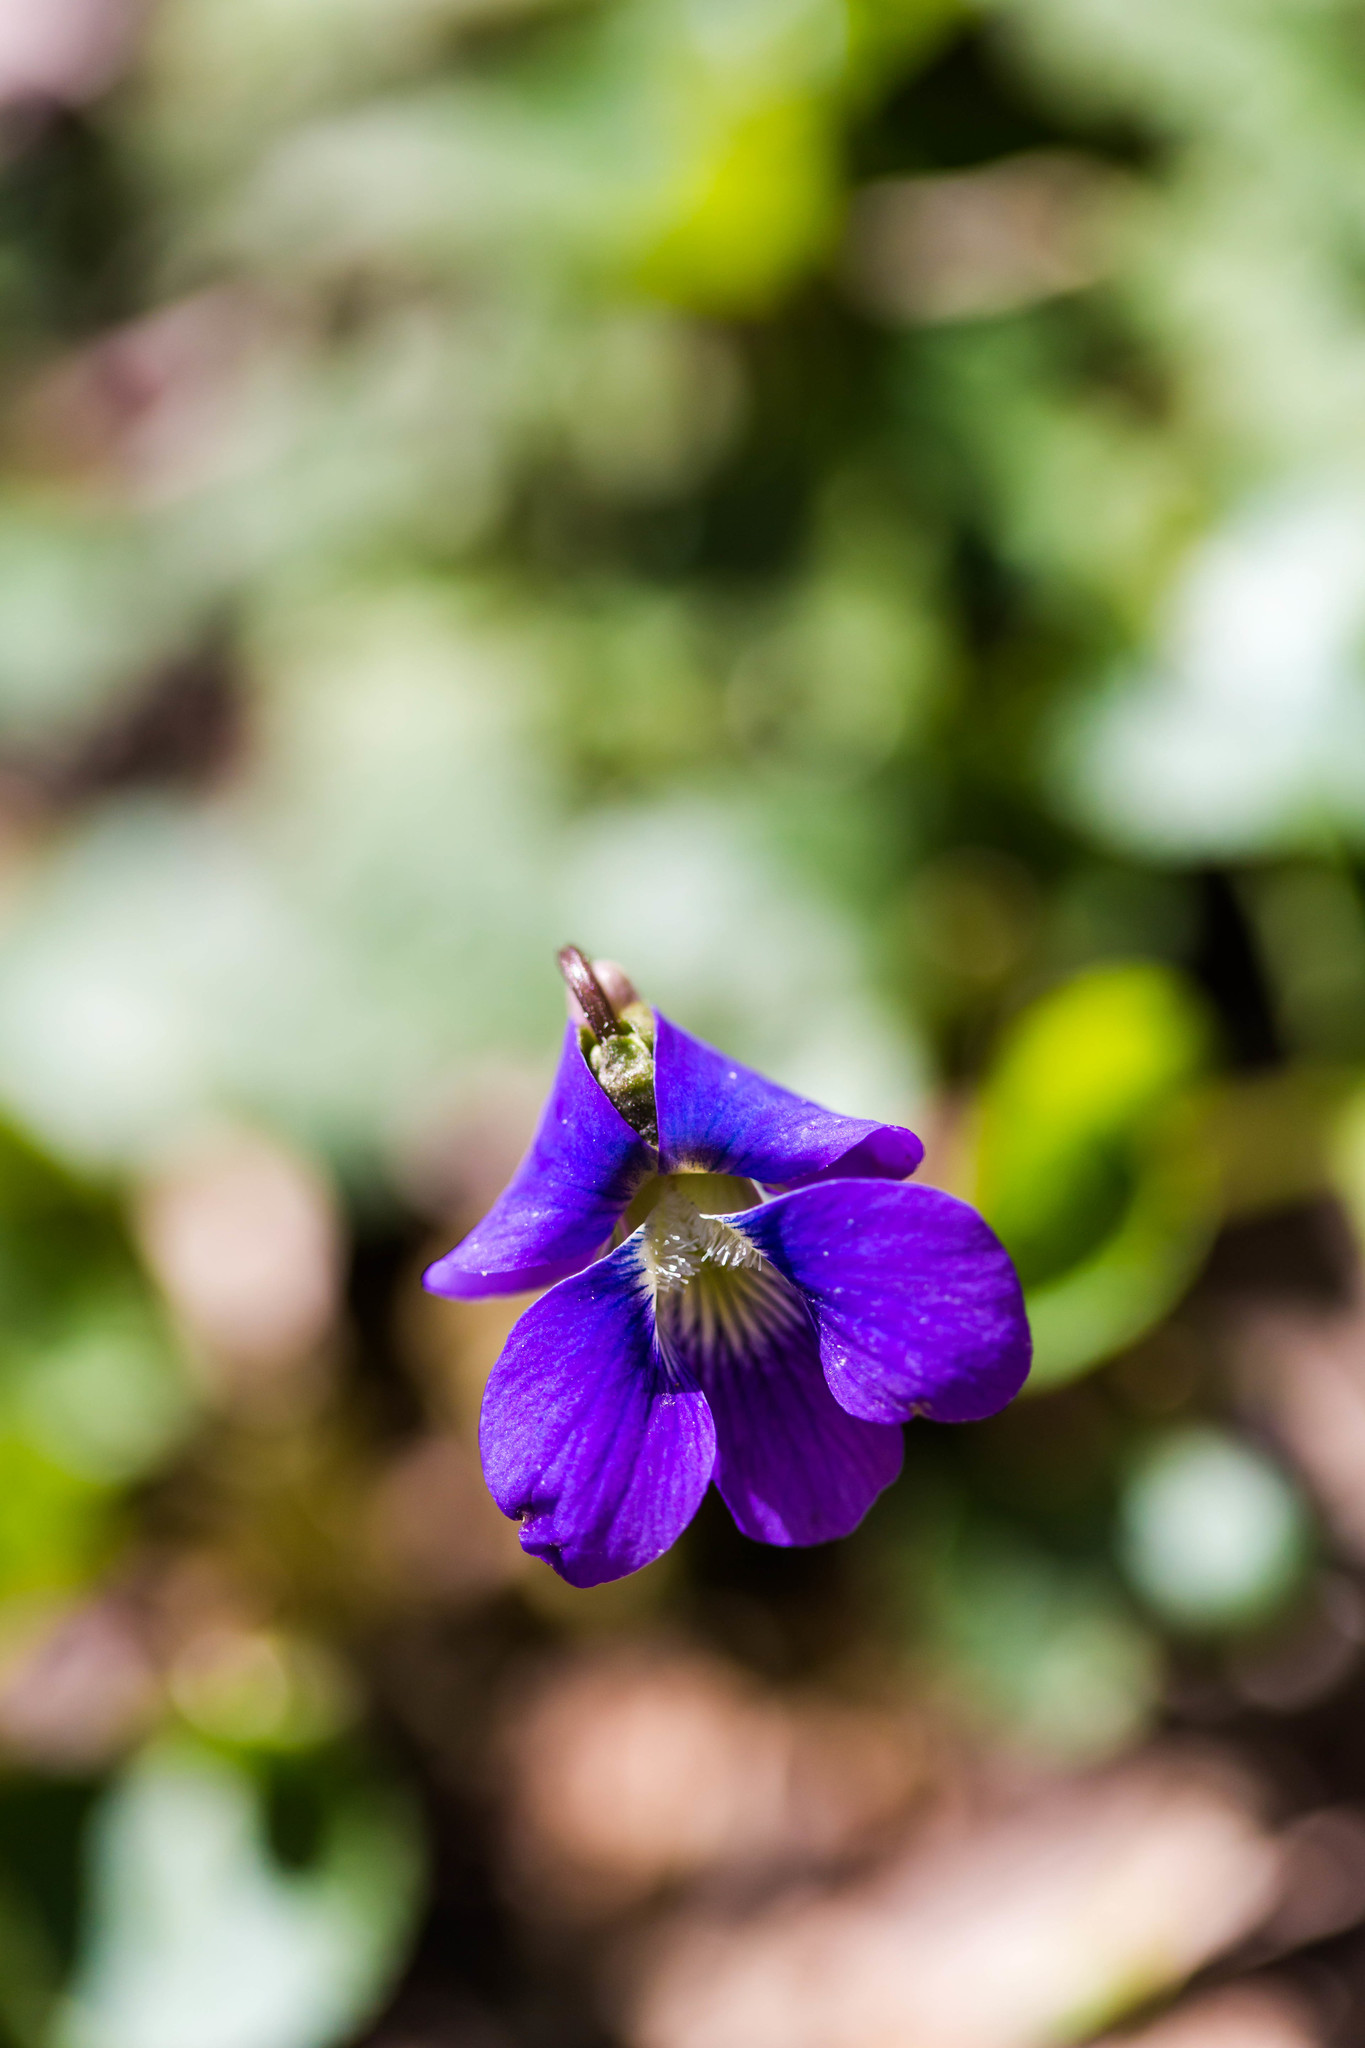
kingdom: Plantae
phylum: Tracheophyta
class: Magnoliopsida
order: Malpighiales
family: Violaceae
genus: Viola
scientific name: Viola sororia
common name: Dooryard violet
